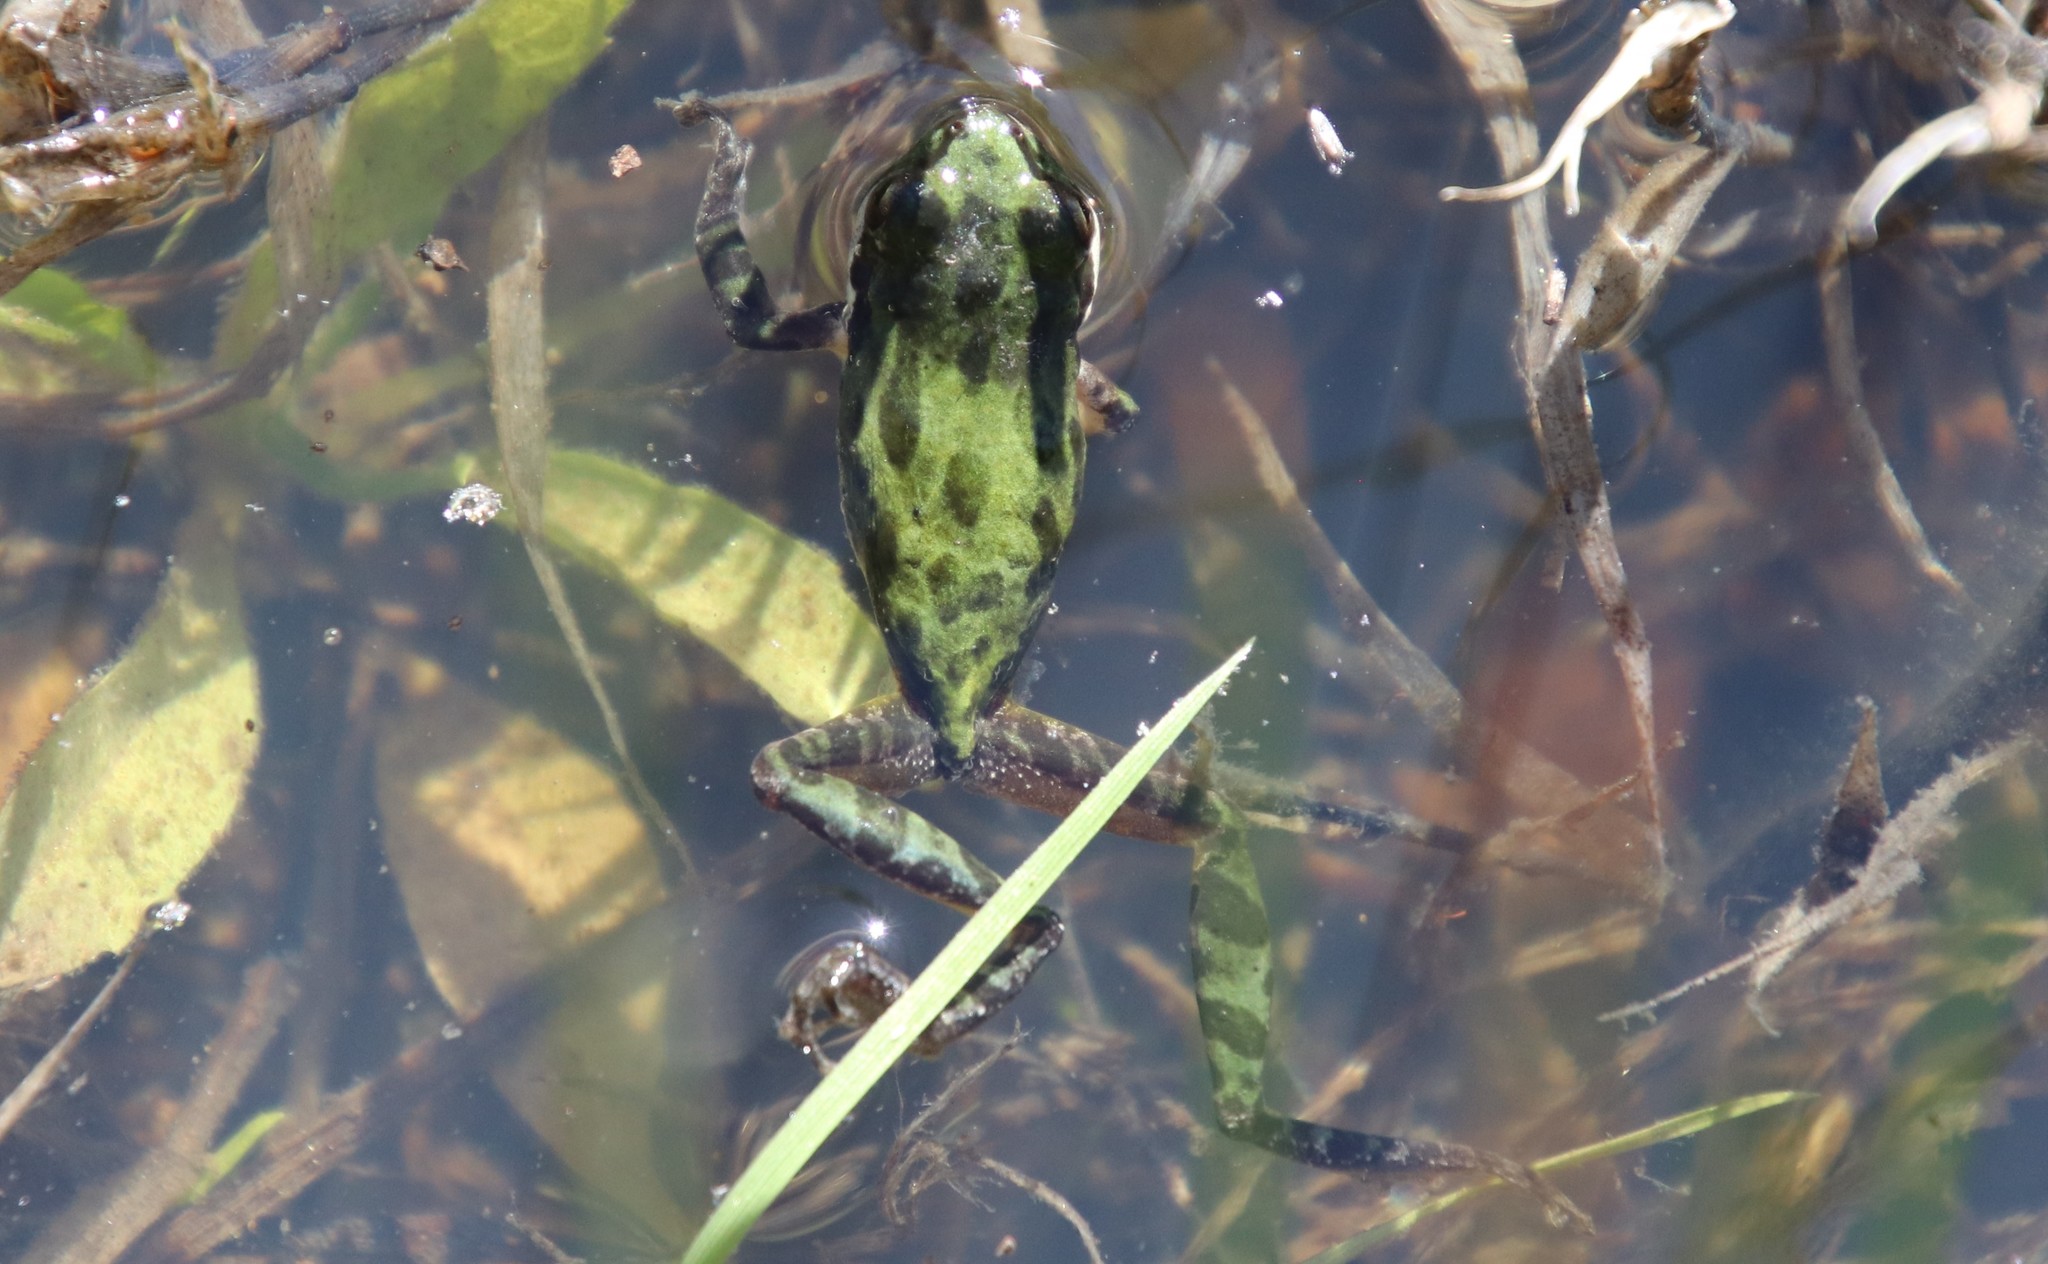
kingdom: Animalia
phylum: Chordata
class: Amphibia
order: Anura
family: Hylidae
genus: Pseudacris
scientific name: Pseudacris regilla
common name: Pacific chorus frog
